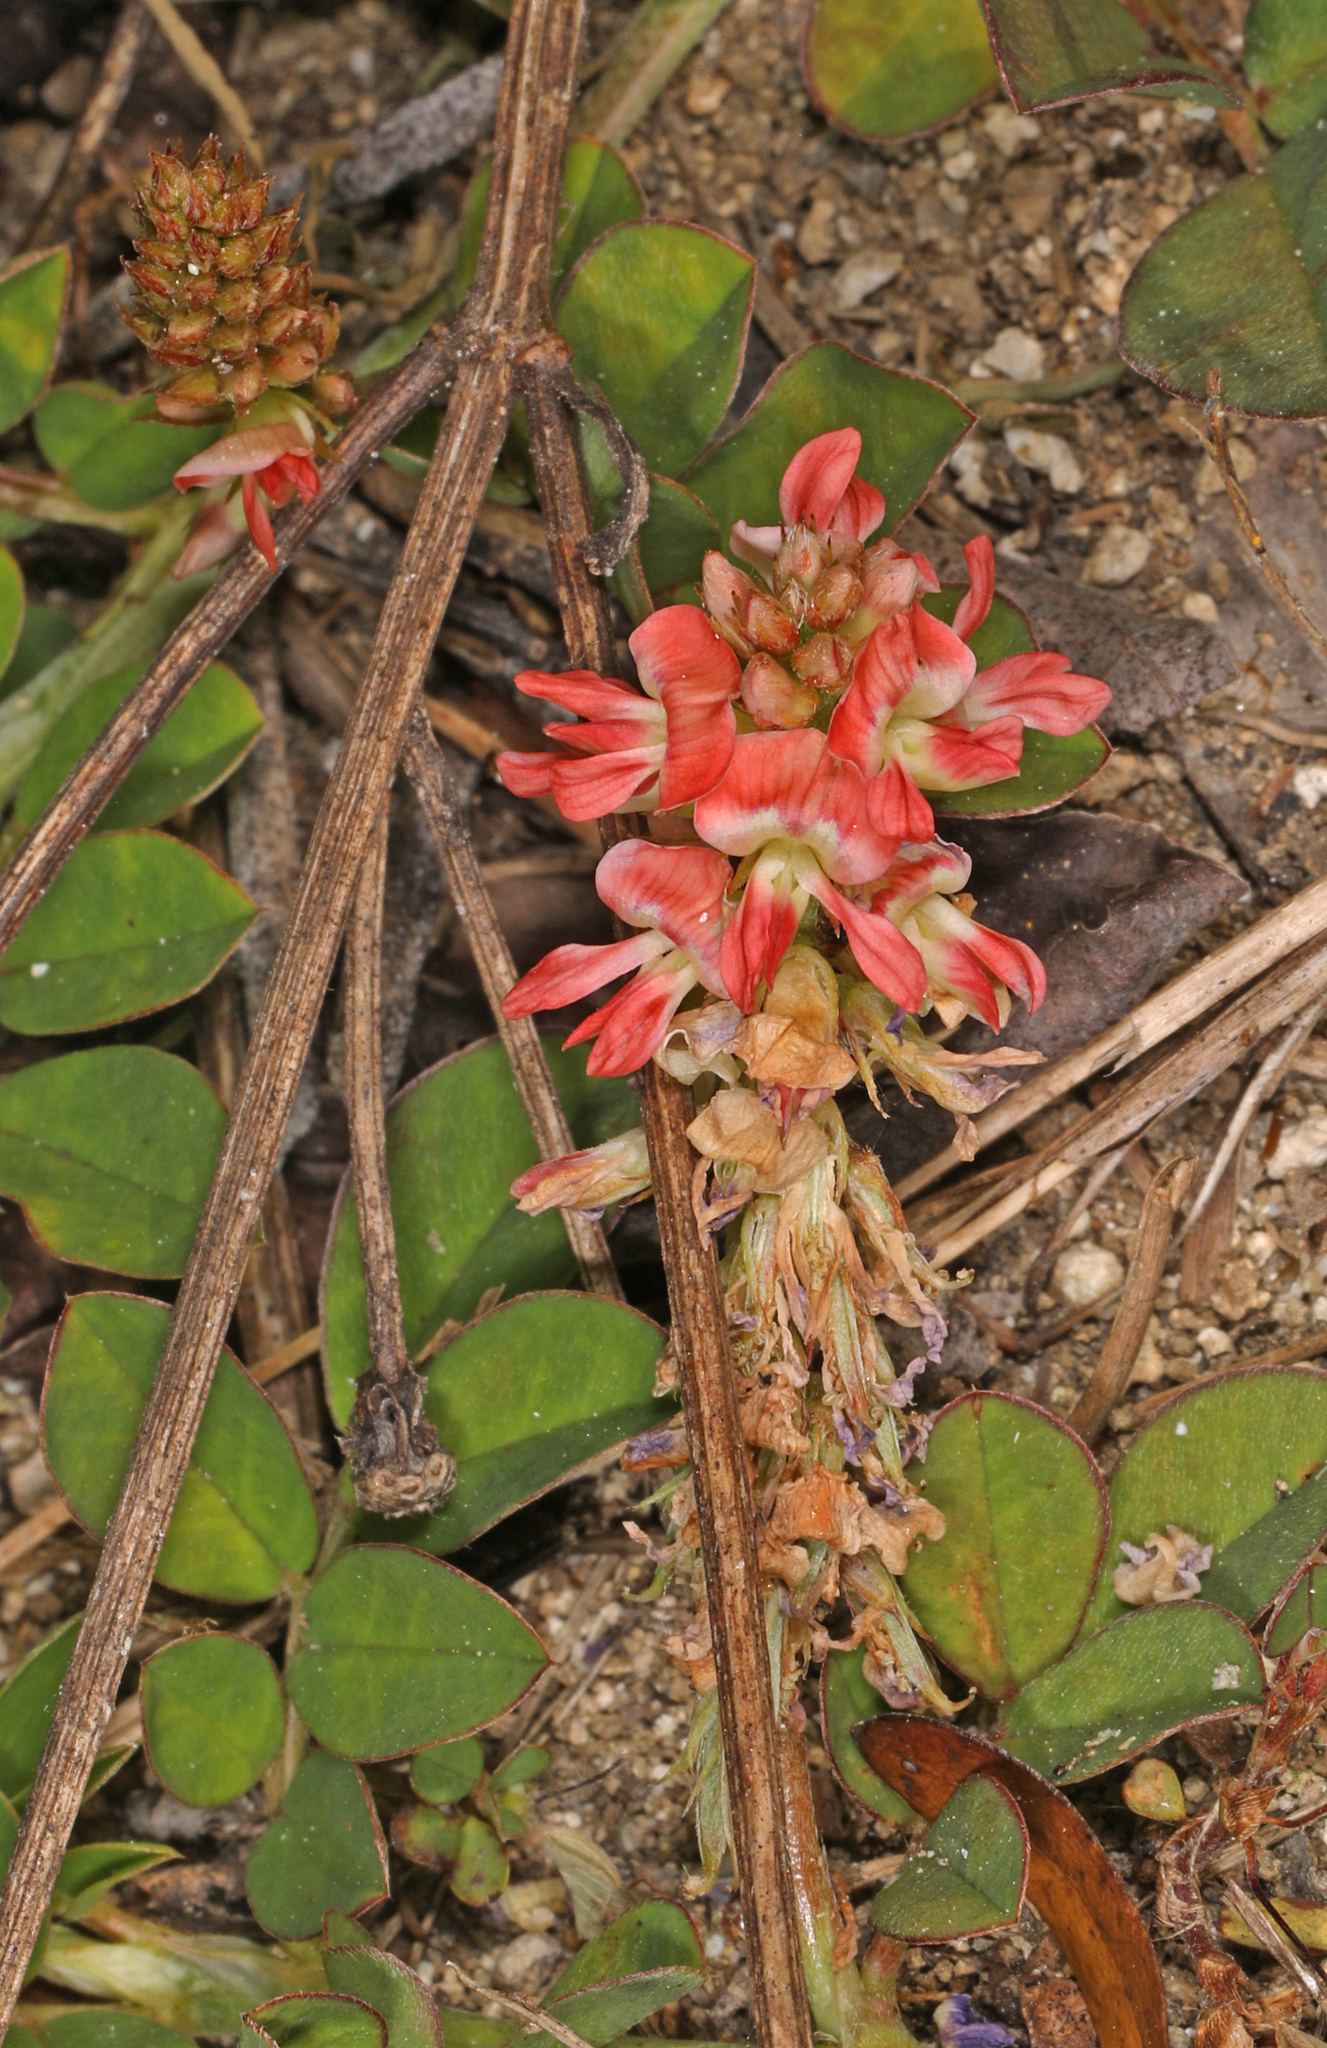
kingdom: Plantae
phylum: Tracheophyta
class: Magnoliopsida
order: Fabales
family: Fabaceae
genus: Indigofera
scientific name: Indigofera spicata
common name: Creeping indigo
